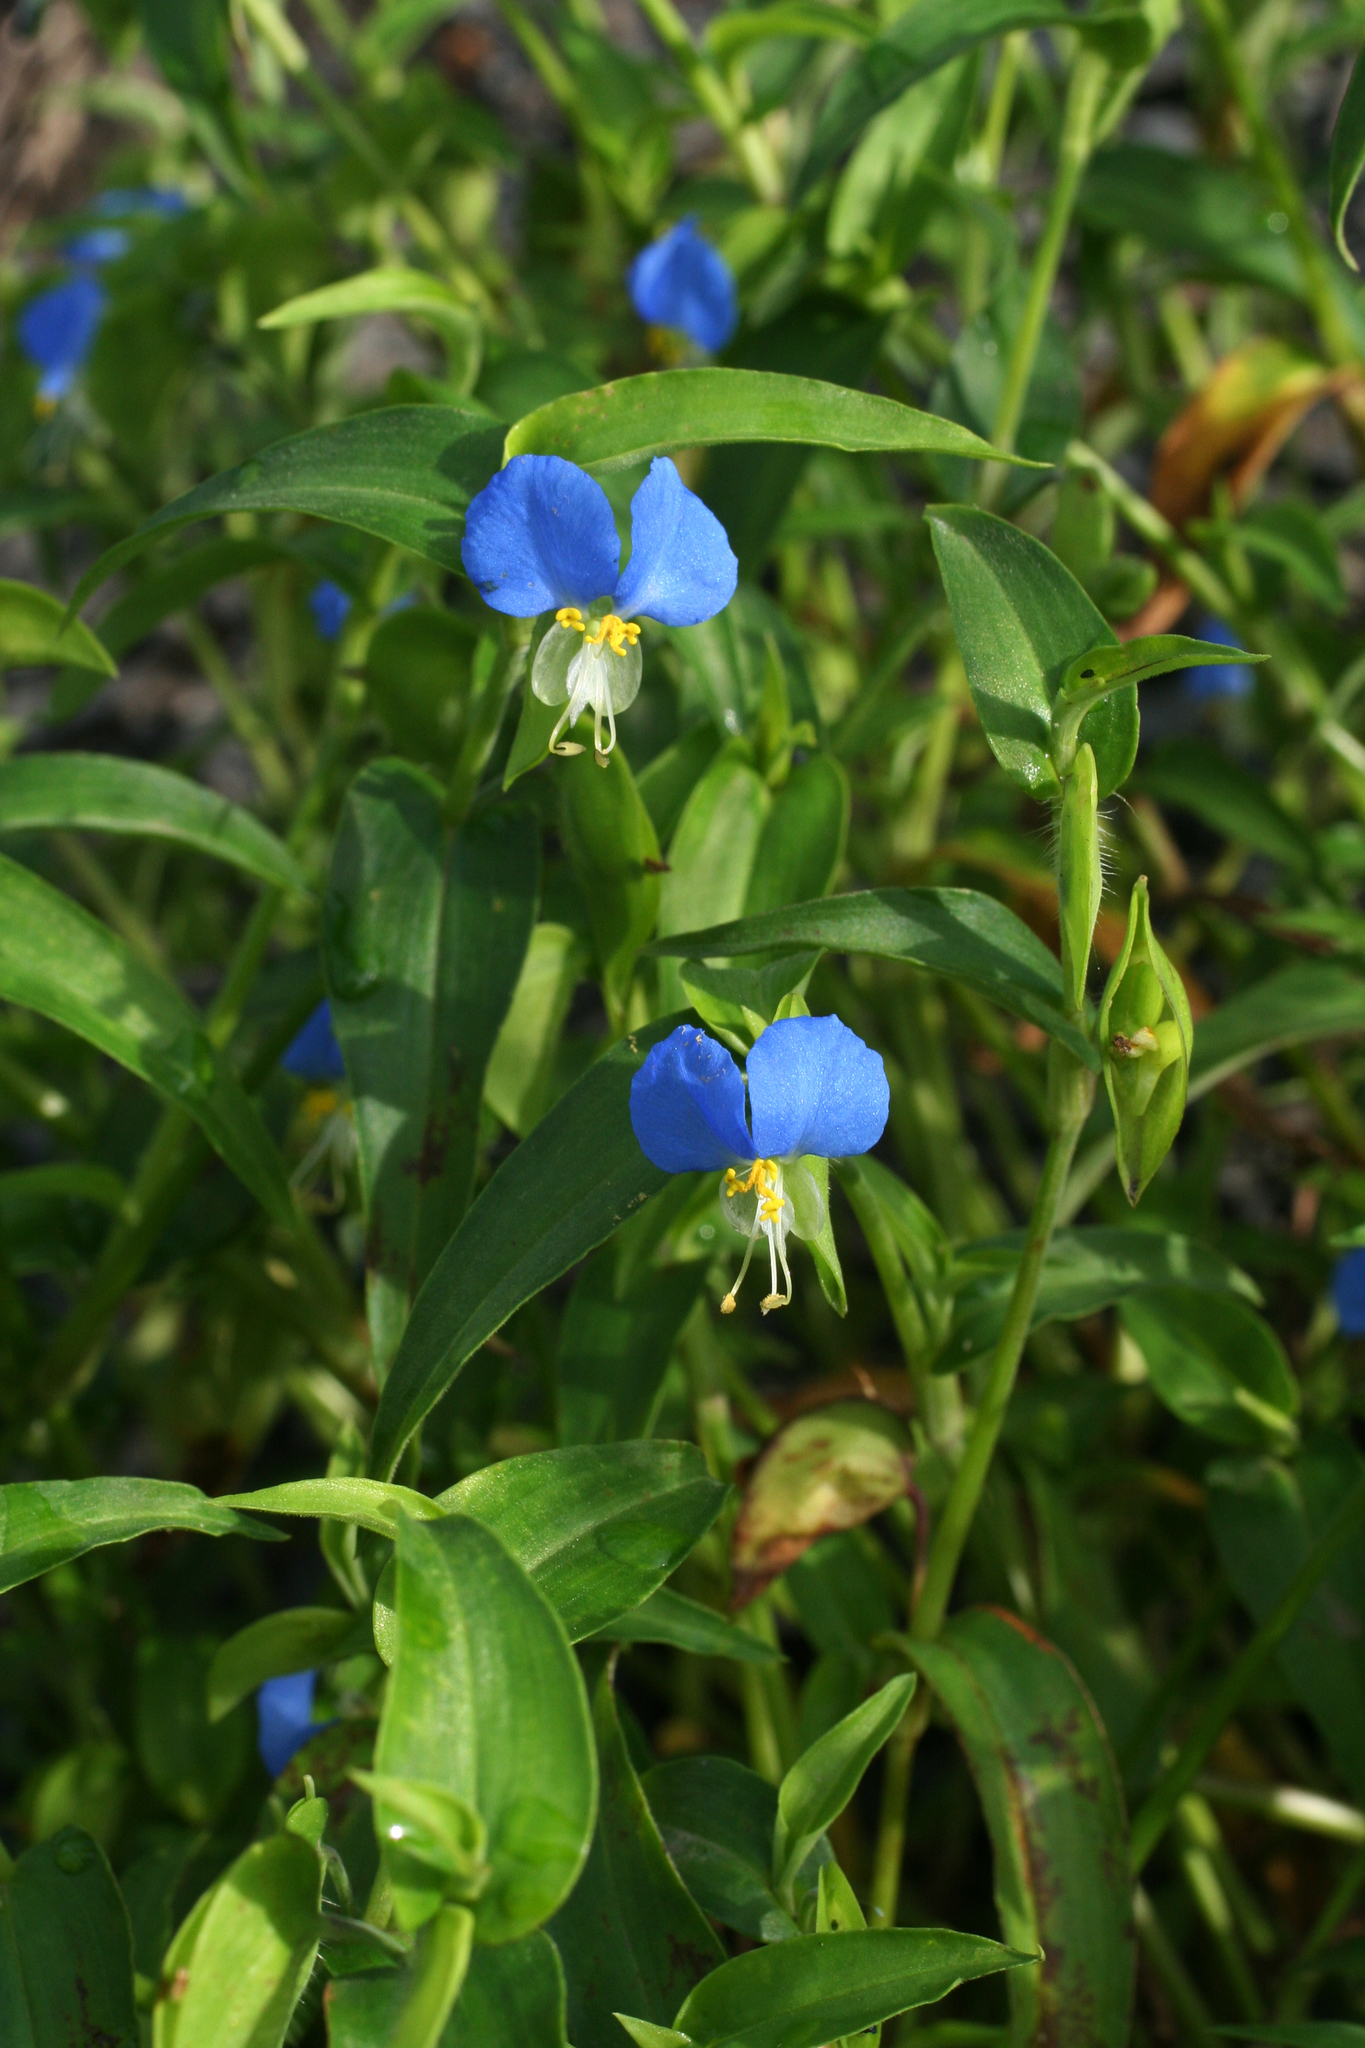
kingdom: Plantae
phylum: Tracheophyta
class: Liliopsida
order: Commelinales
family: Commelinaceae
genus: Commelina
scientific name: Commelina communis
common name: Asiatic dayflower
